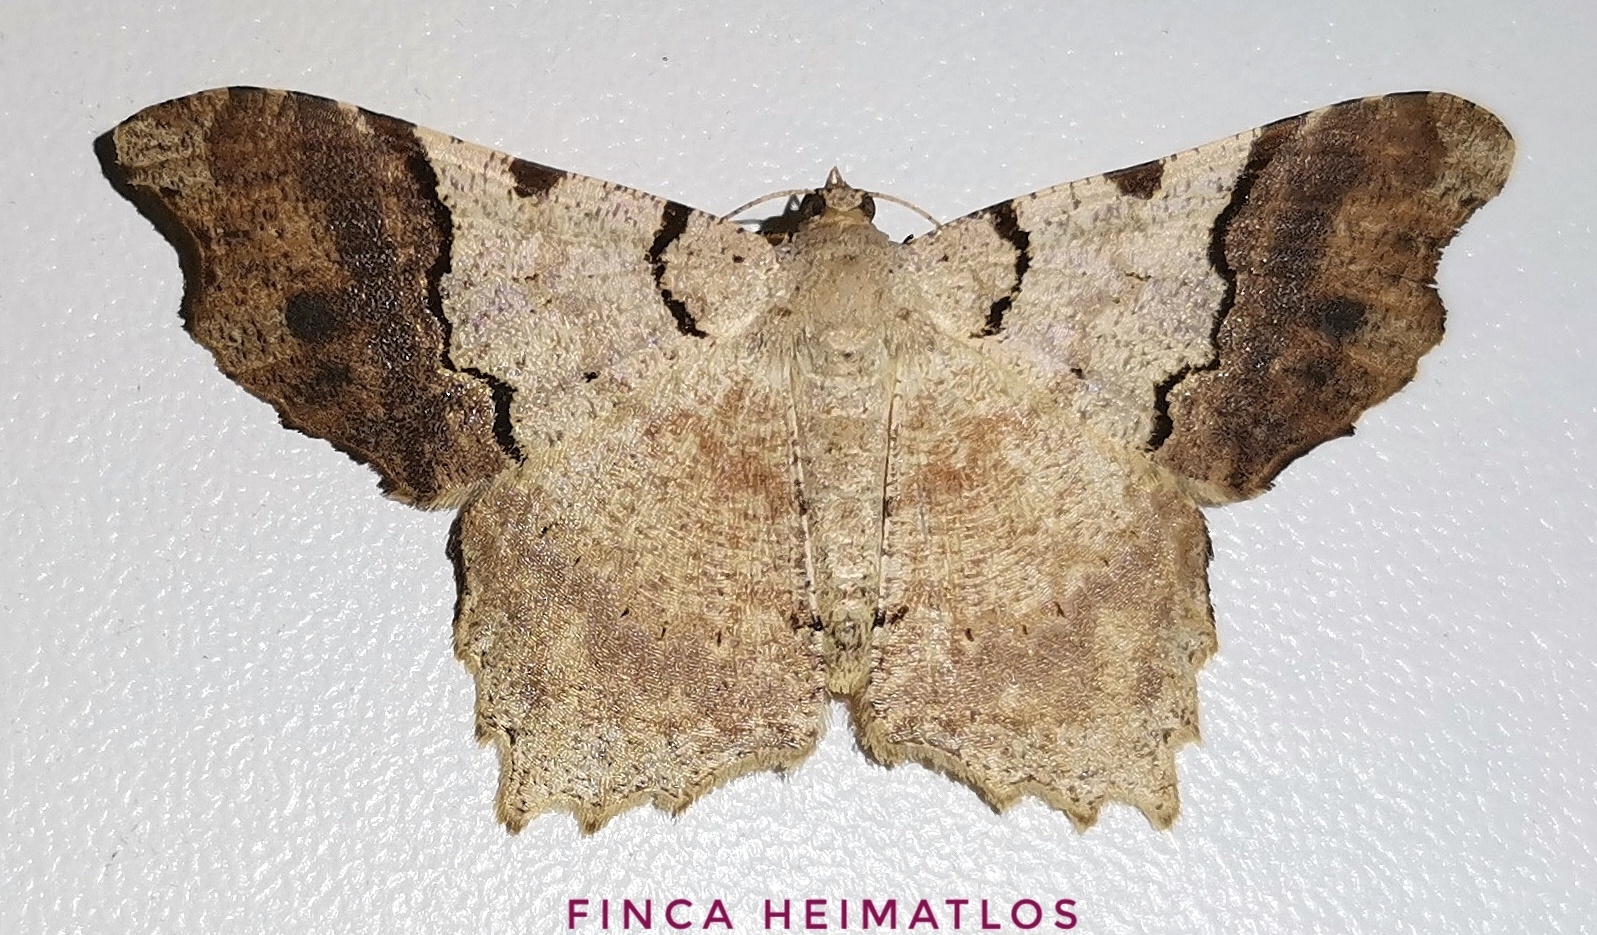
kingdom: Animalia
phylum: Arthropoda
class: Insecta
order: Lepidoptera
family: Geometridae
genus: Macaria
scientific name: Macaria approximaria
